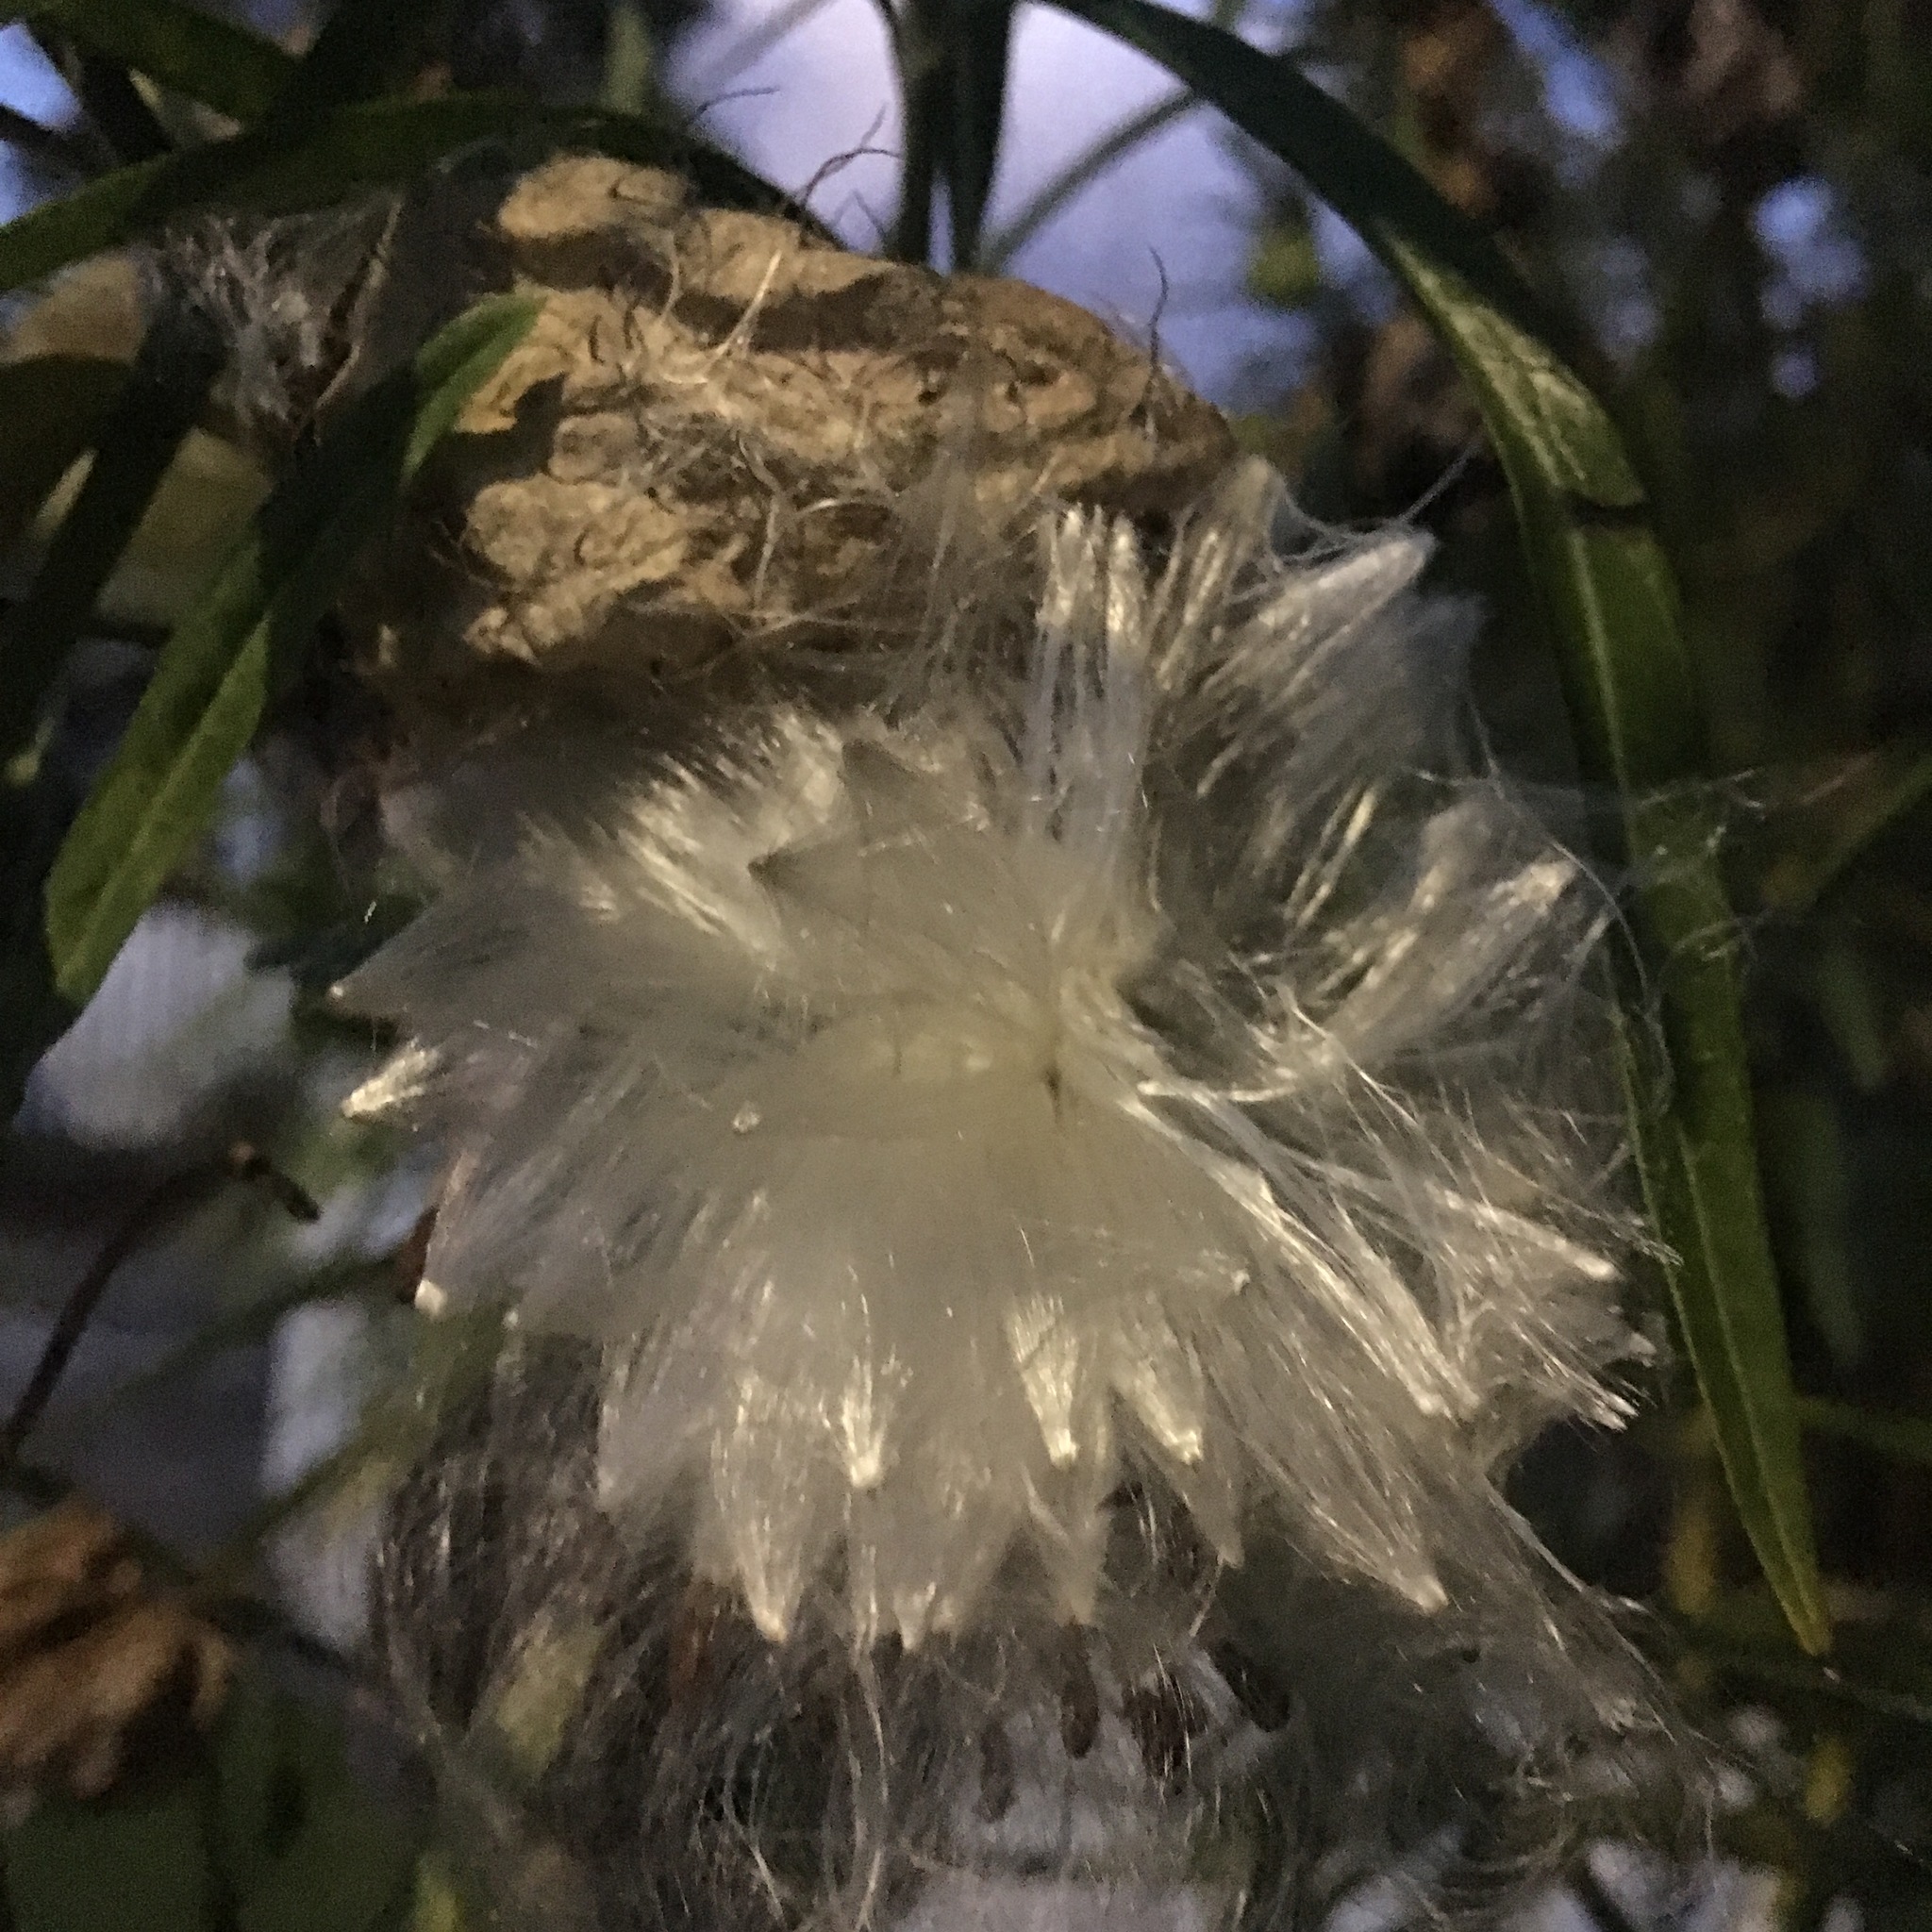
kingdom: Plantae
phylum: Tracheophyta
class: Magnoliopsida
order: Gentianales
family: Apocynaceae
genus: Gomphocarpus
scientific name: Gomphocarpus physocarpus
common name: Balloon cotton bush
